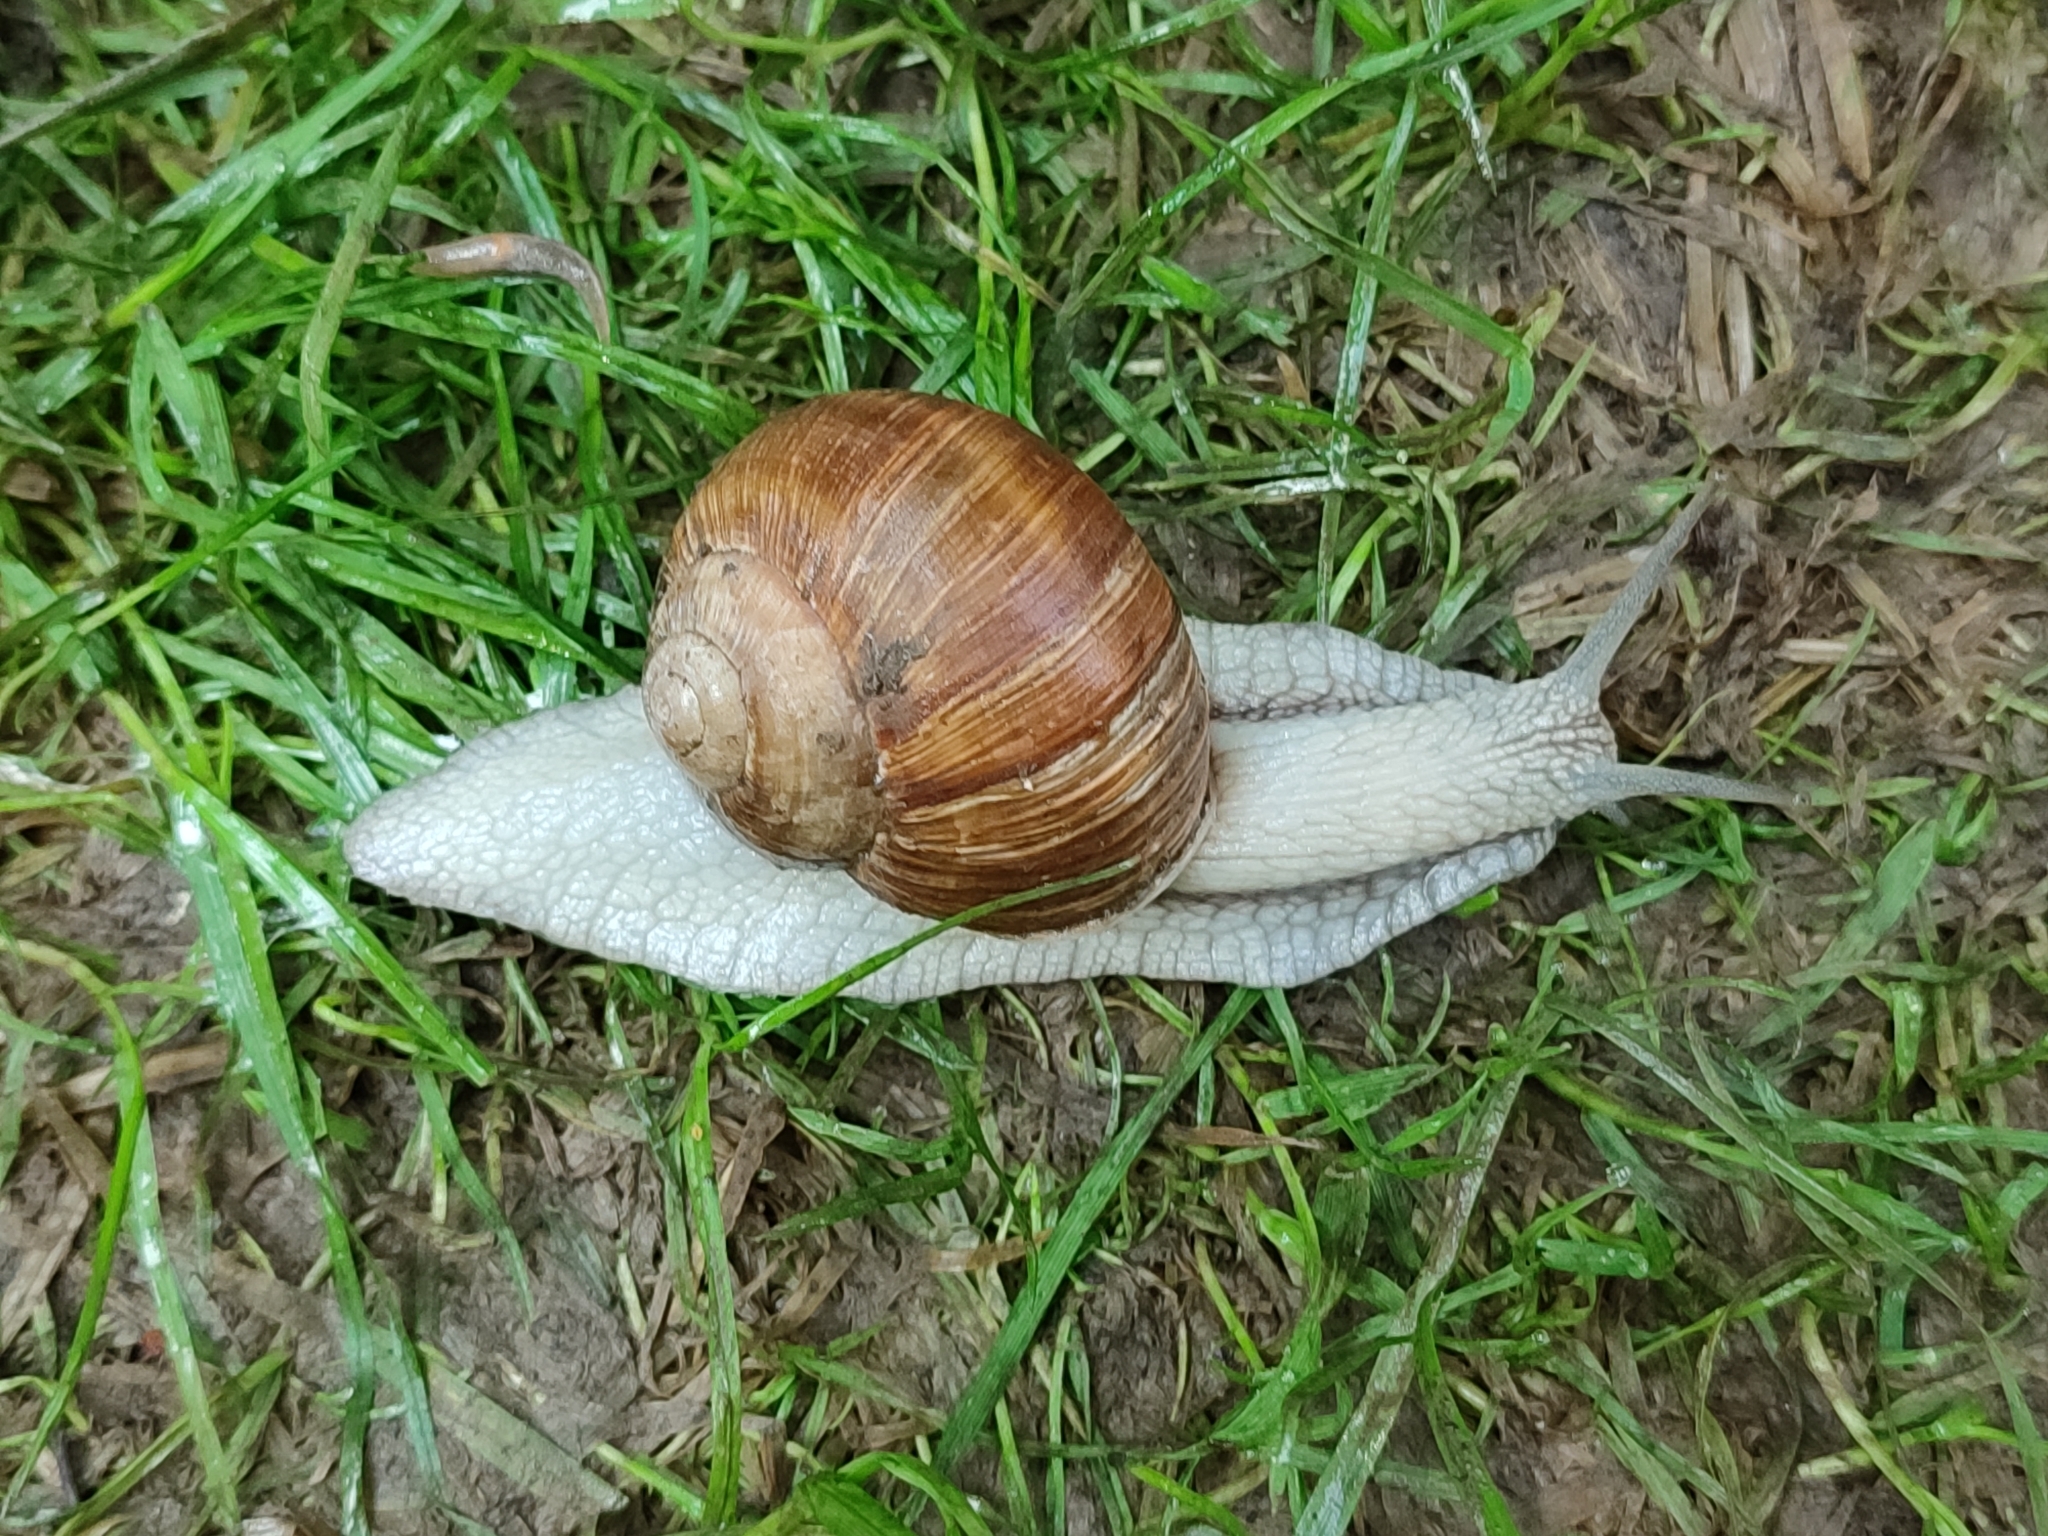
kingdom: Animalia
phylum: Mollusca
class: Gastropoda
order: Stylommatophora
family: Helicidae
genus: Helix
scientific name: Helix pomatia
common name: Roman snail
